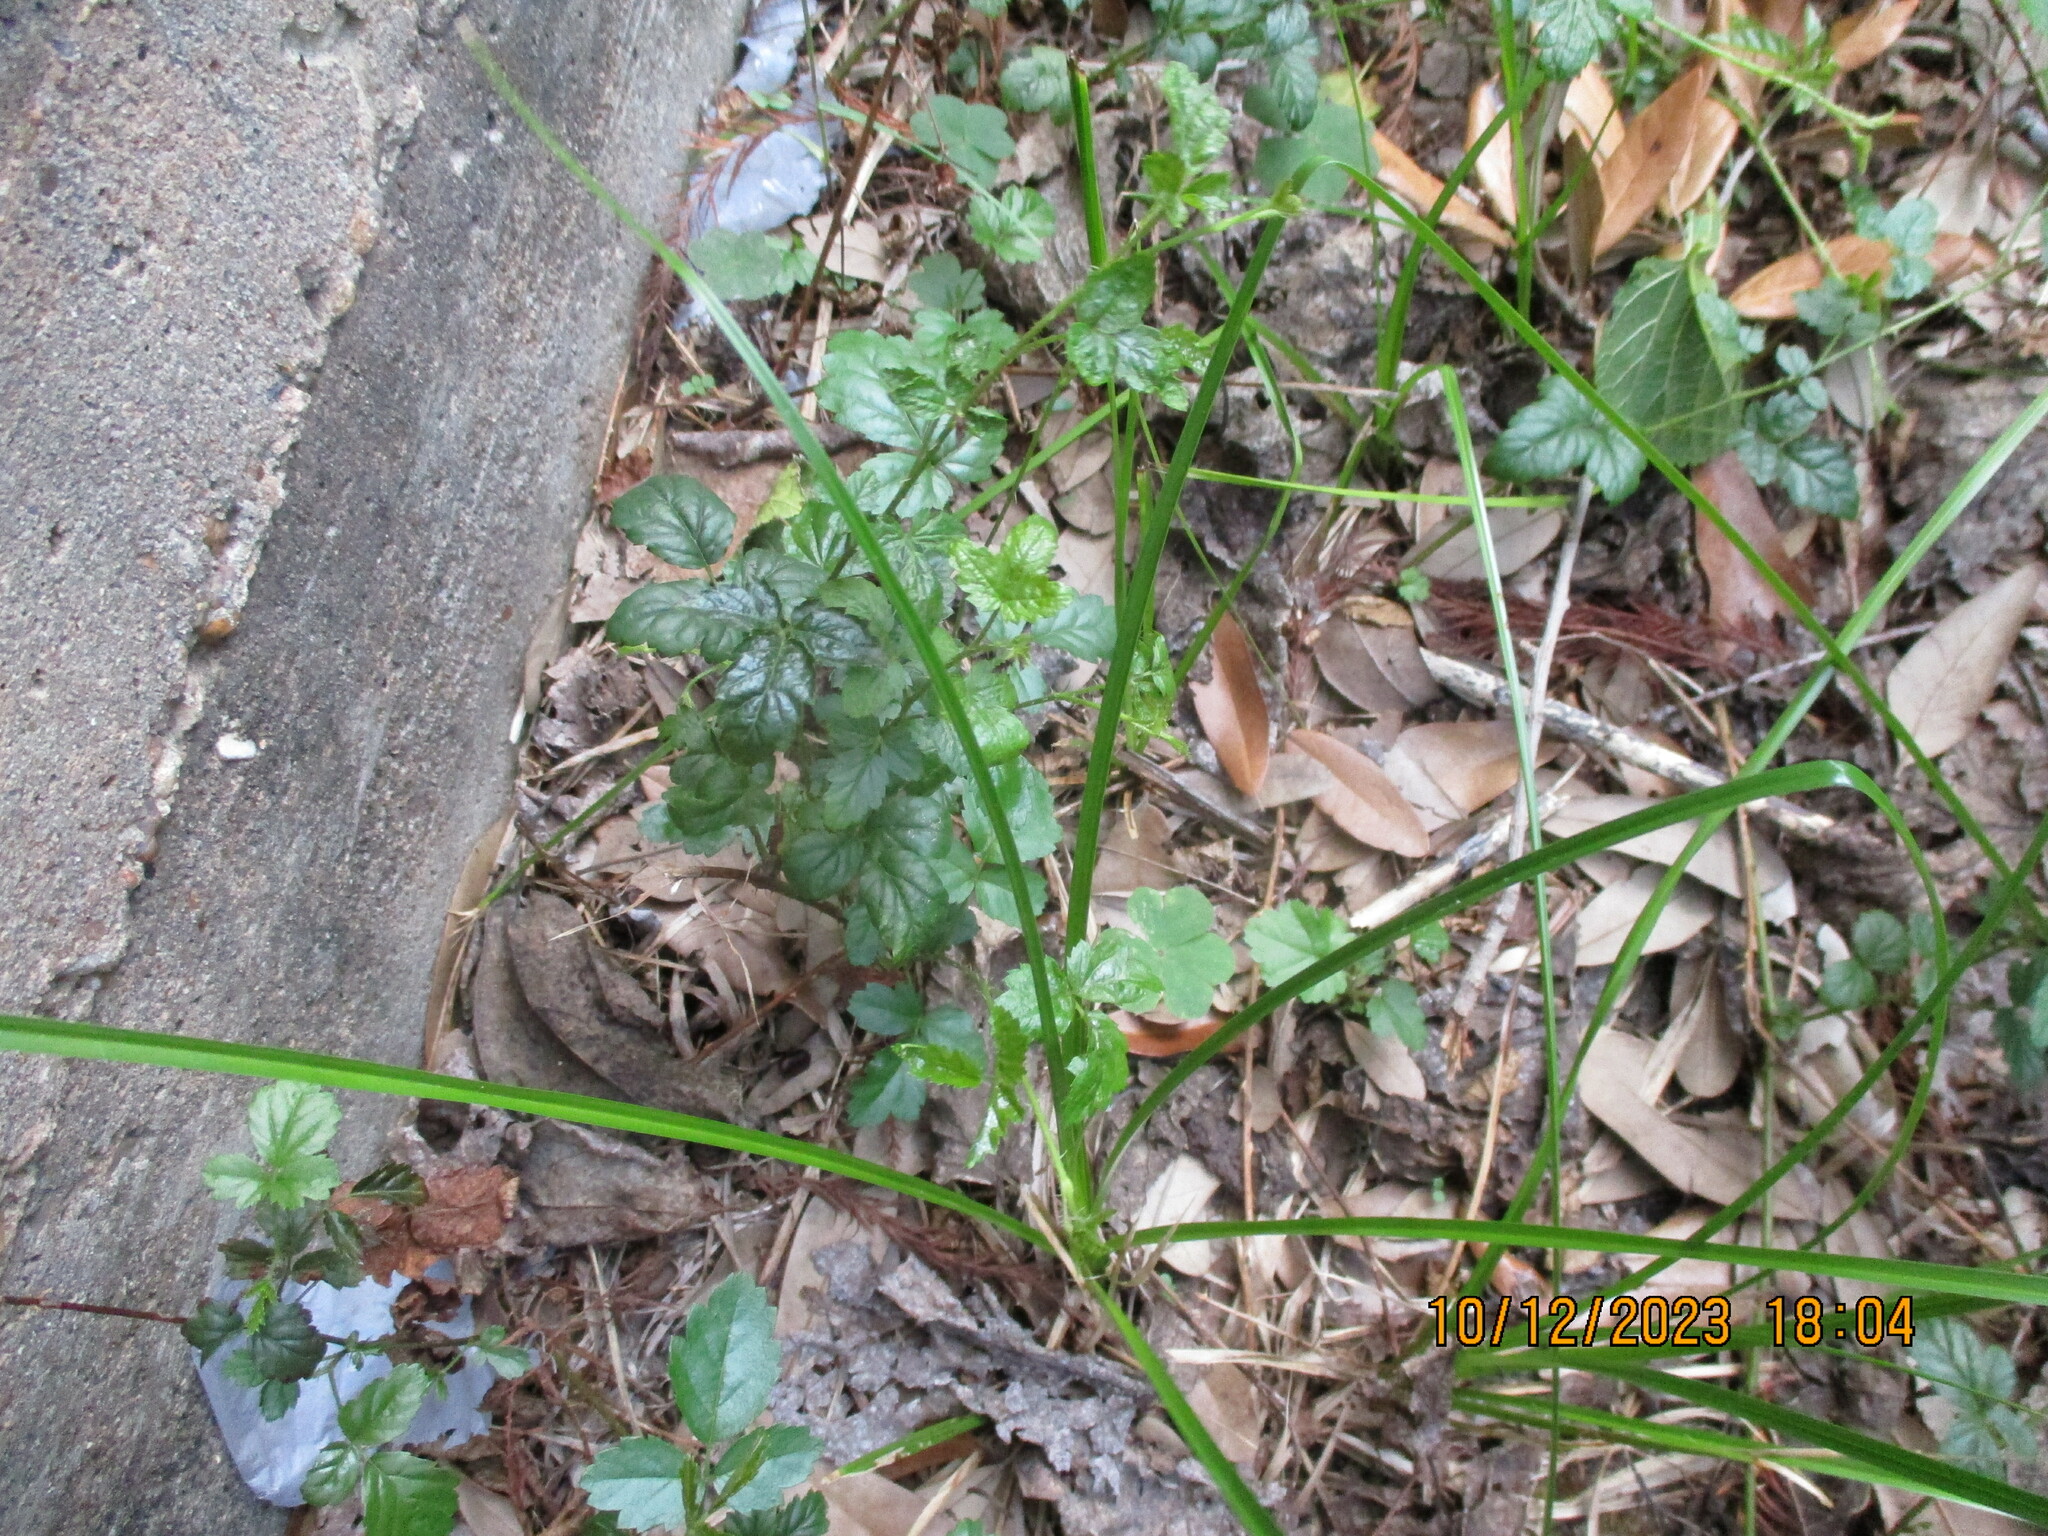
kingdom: Plantae
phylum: Tracheophyta
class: Magnoliopsida
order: Rosales
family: Rosaceae
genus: Rubus
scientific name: Rubus trivialis
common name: Southern dewberry
